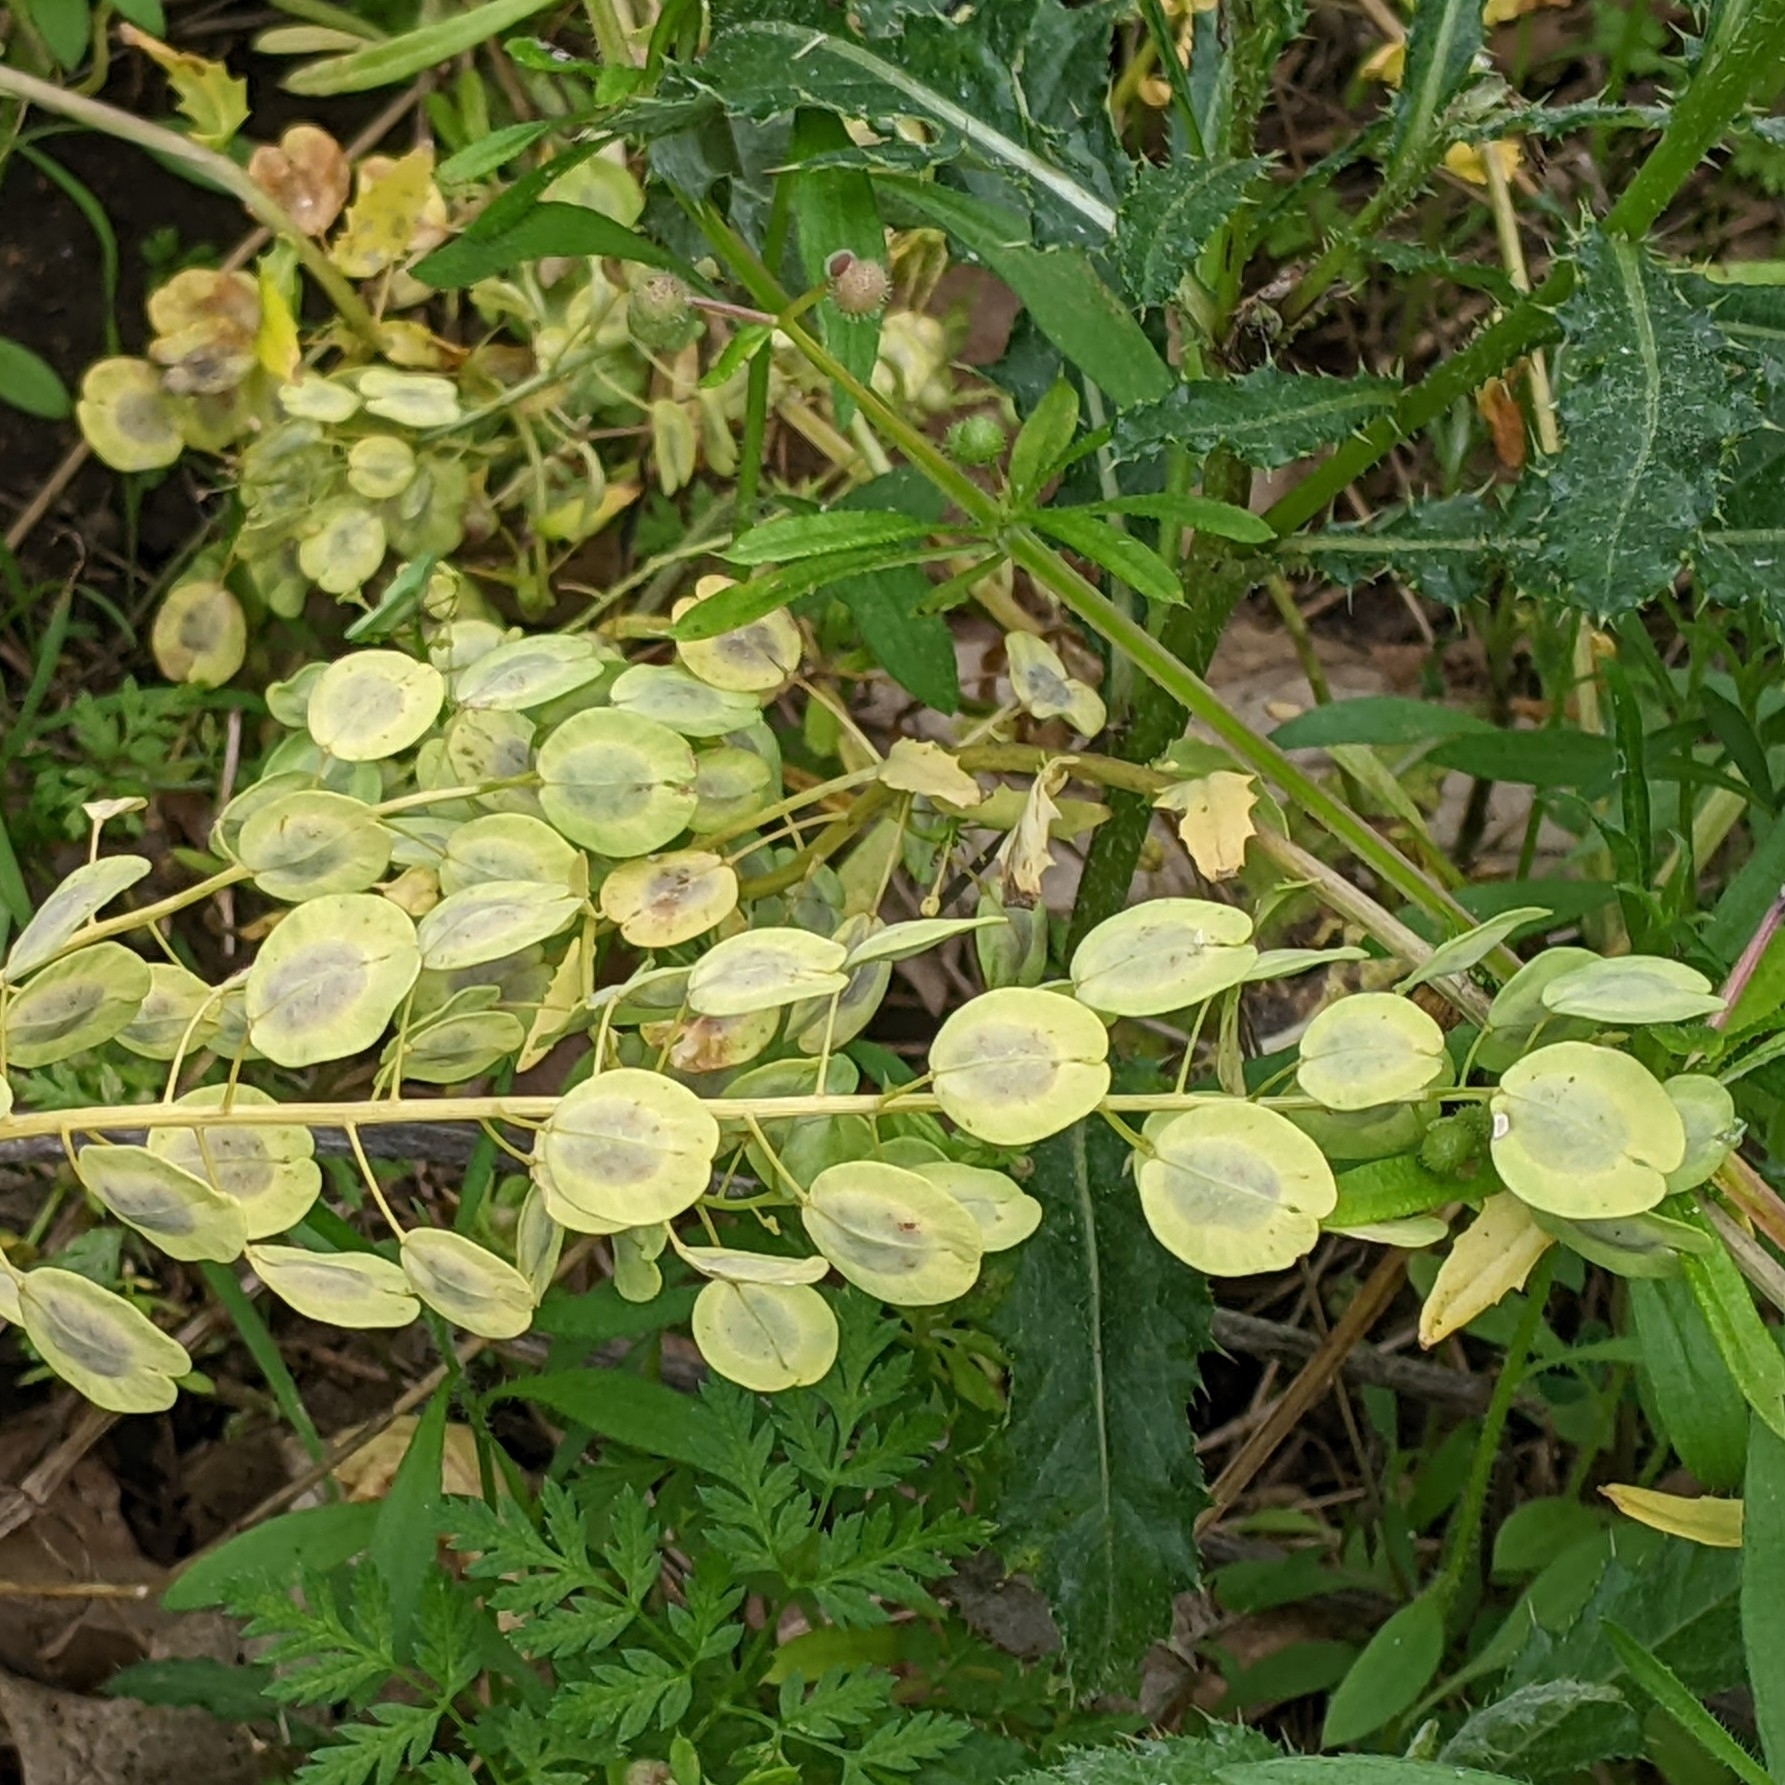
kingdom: Plantae
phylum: Tracheophyta
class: Magnoliopsida
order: Brassicales
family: Brassicaceae
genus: Thlaspi
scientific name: Thlaspi arvense
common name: Field pennycress
